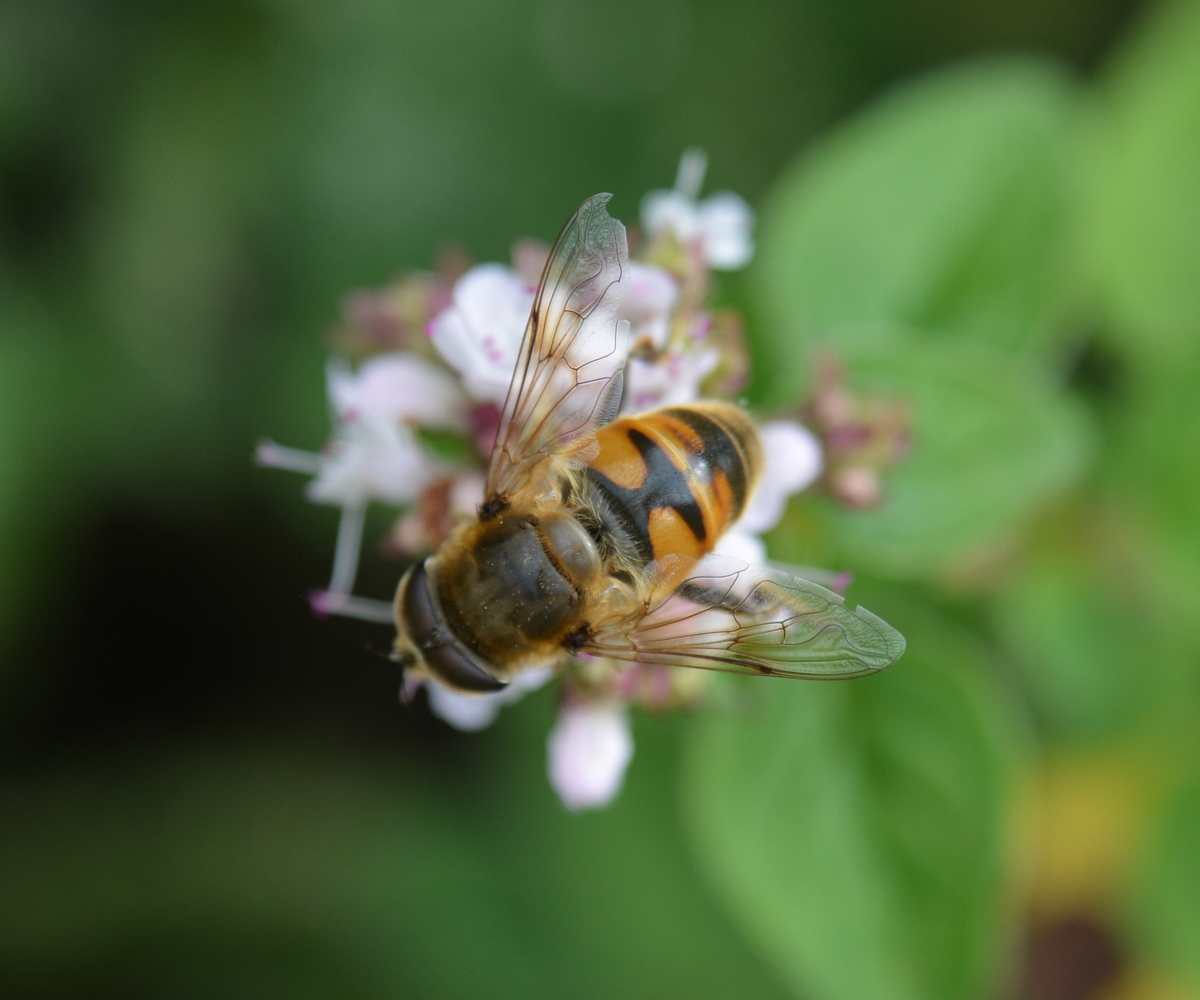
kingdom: Animalia
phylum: Arthropoda
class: Insecta
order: Diptera
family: Syrphidae
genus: Eristalis
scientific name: Eristalis tenax
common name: Drone fly
